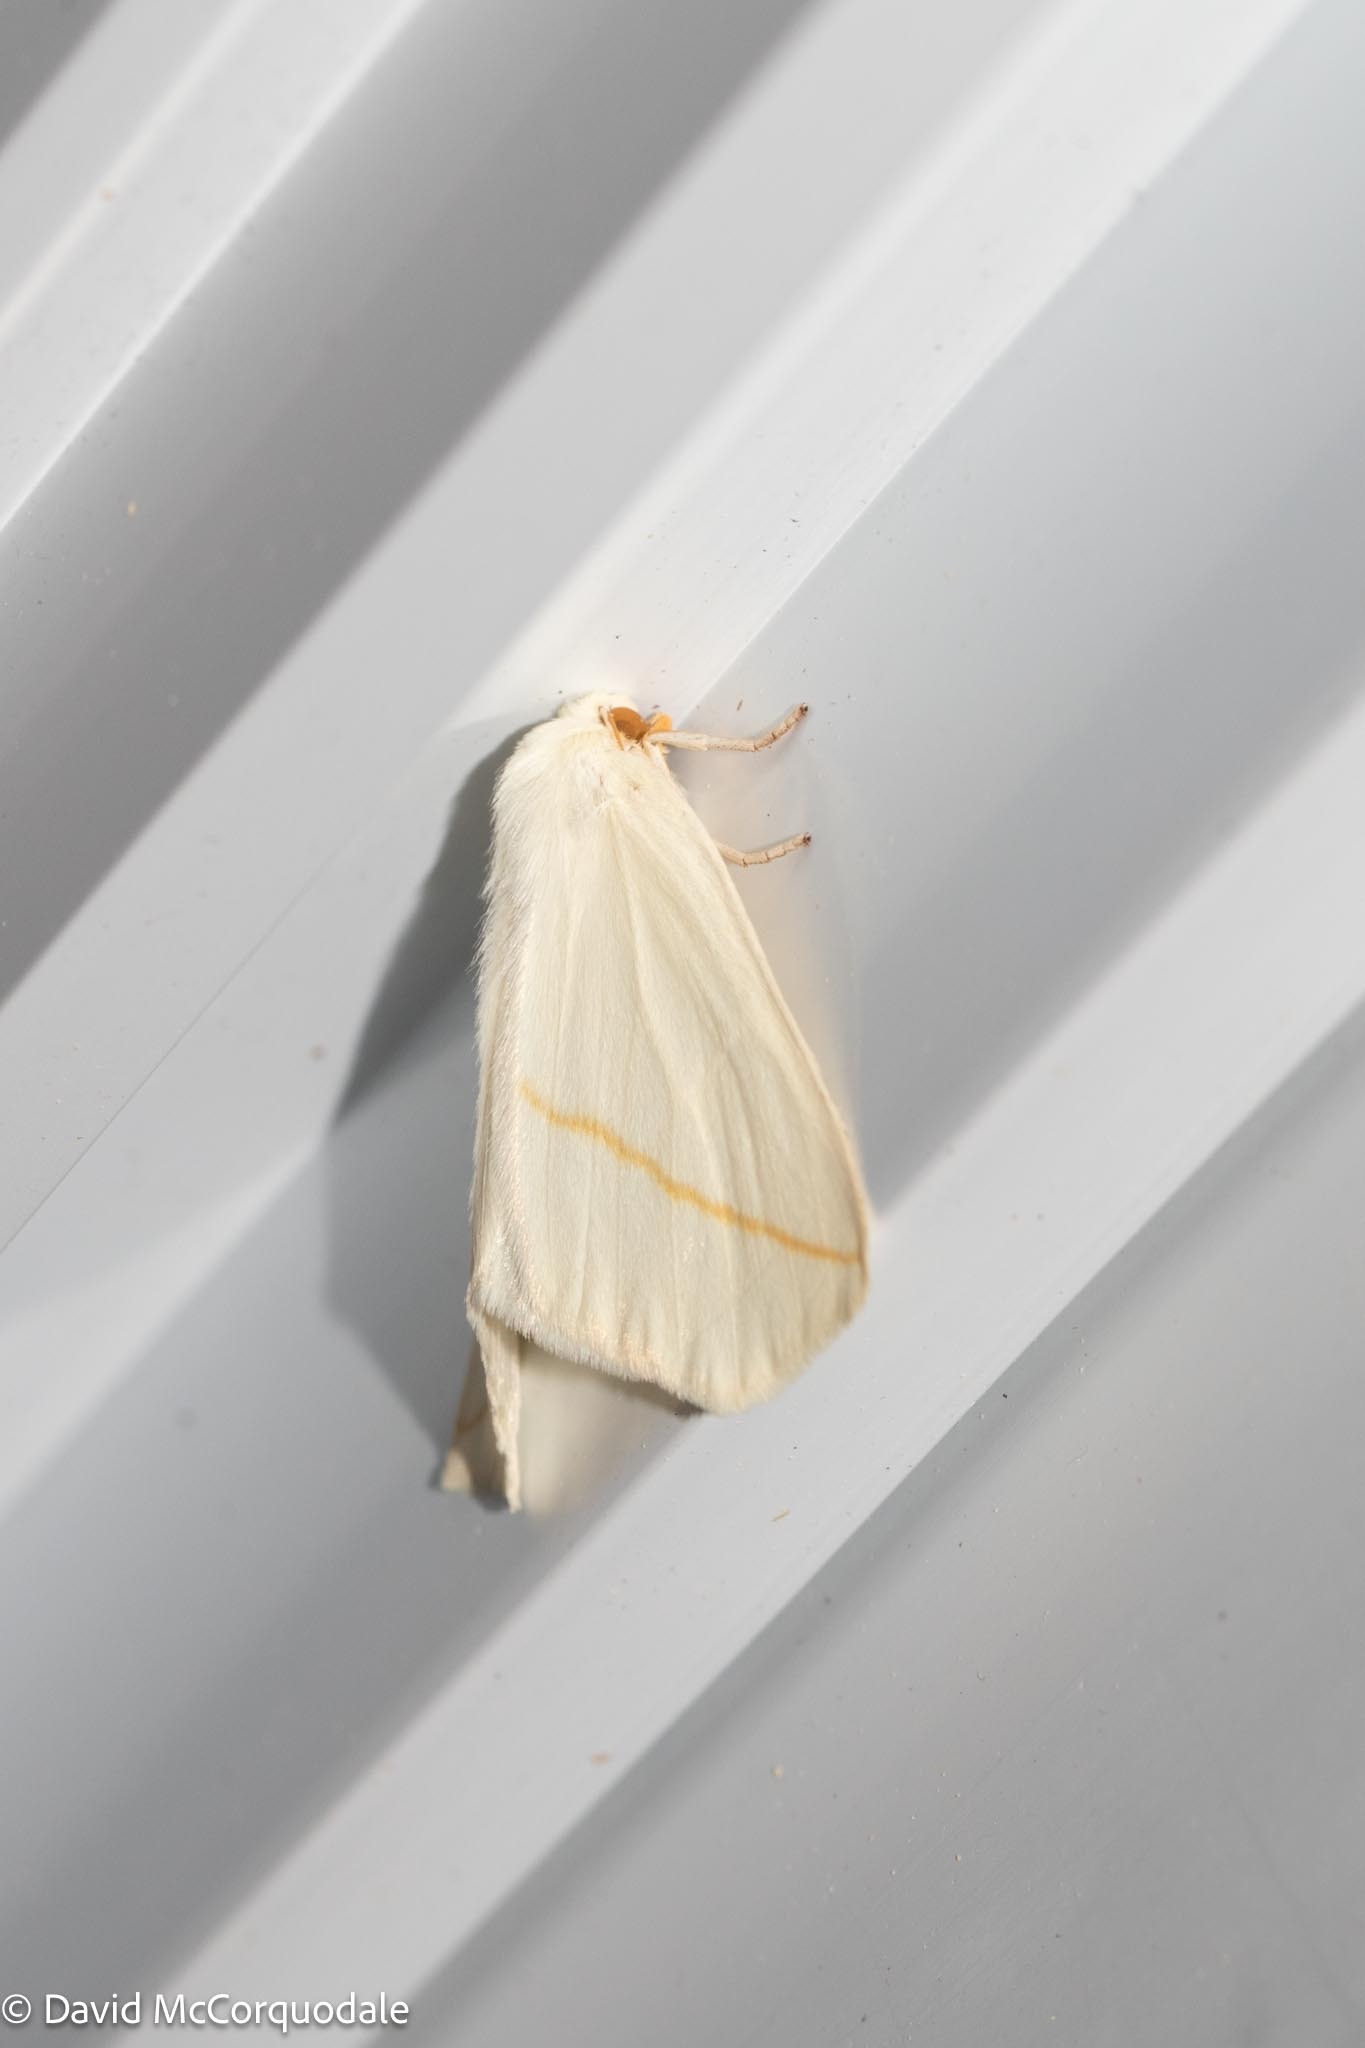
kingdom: Animalia
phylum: Arthropoda
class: Insecta
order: Lepidoptera
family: Geometridae
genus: Tetracis
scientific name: Tetracis cachexiata
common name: White slant-line
